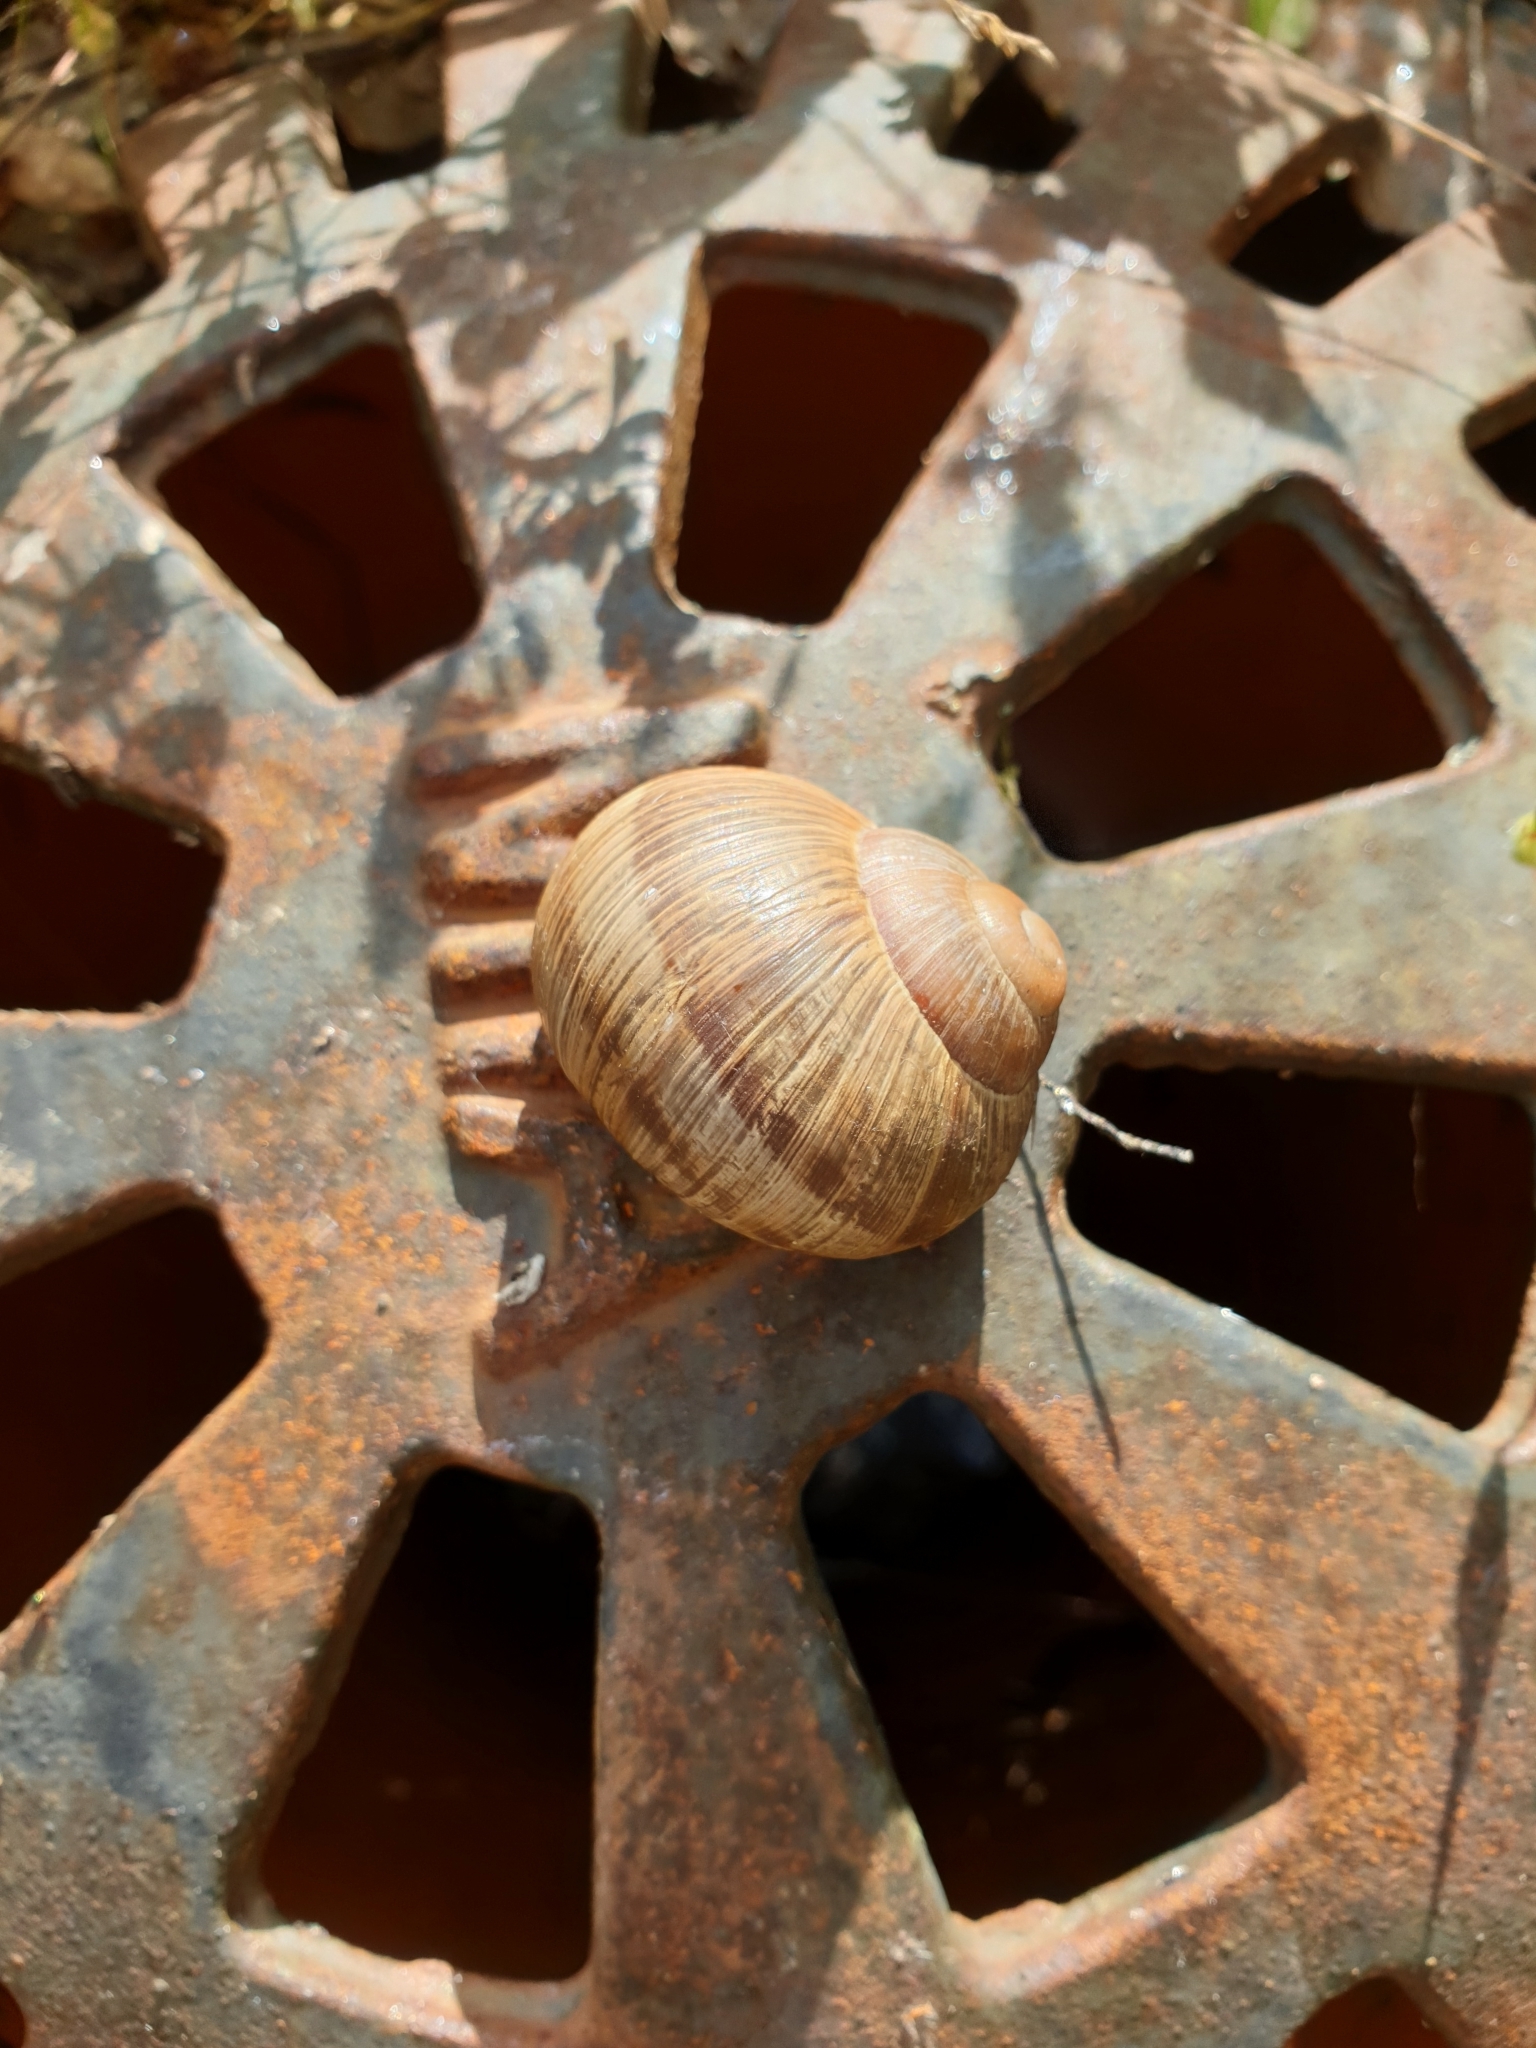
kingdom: Animalia
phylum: Mollusca
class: Gastropoda
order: Stylommatophora
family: Helicidae
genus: Helix
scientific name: Helix pomatia
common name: Roman snail
